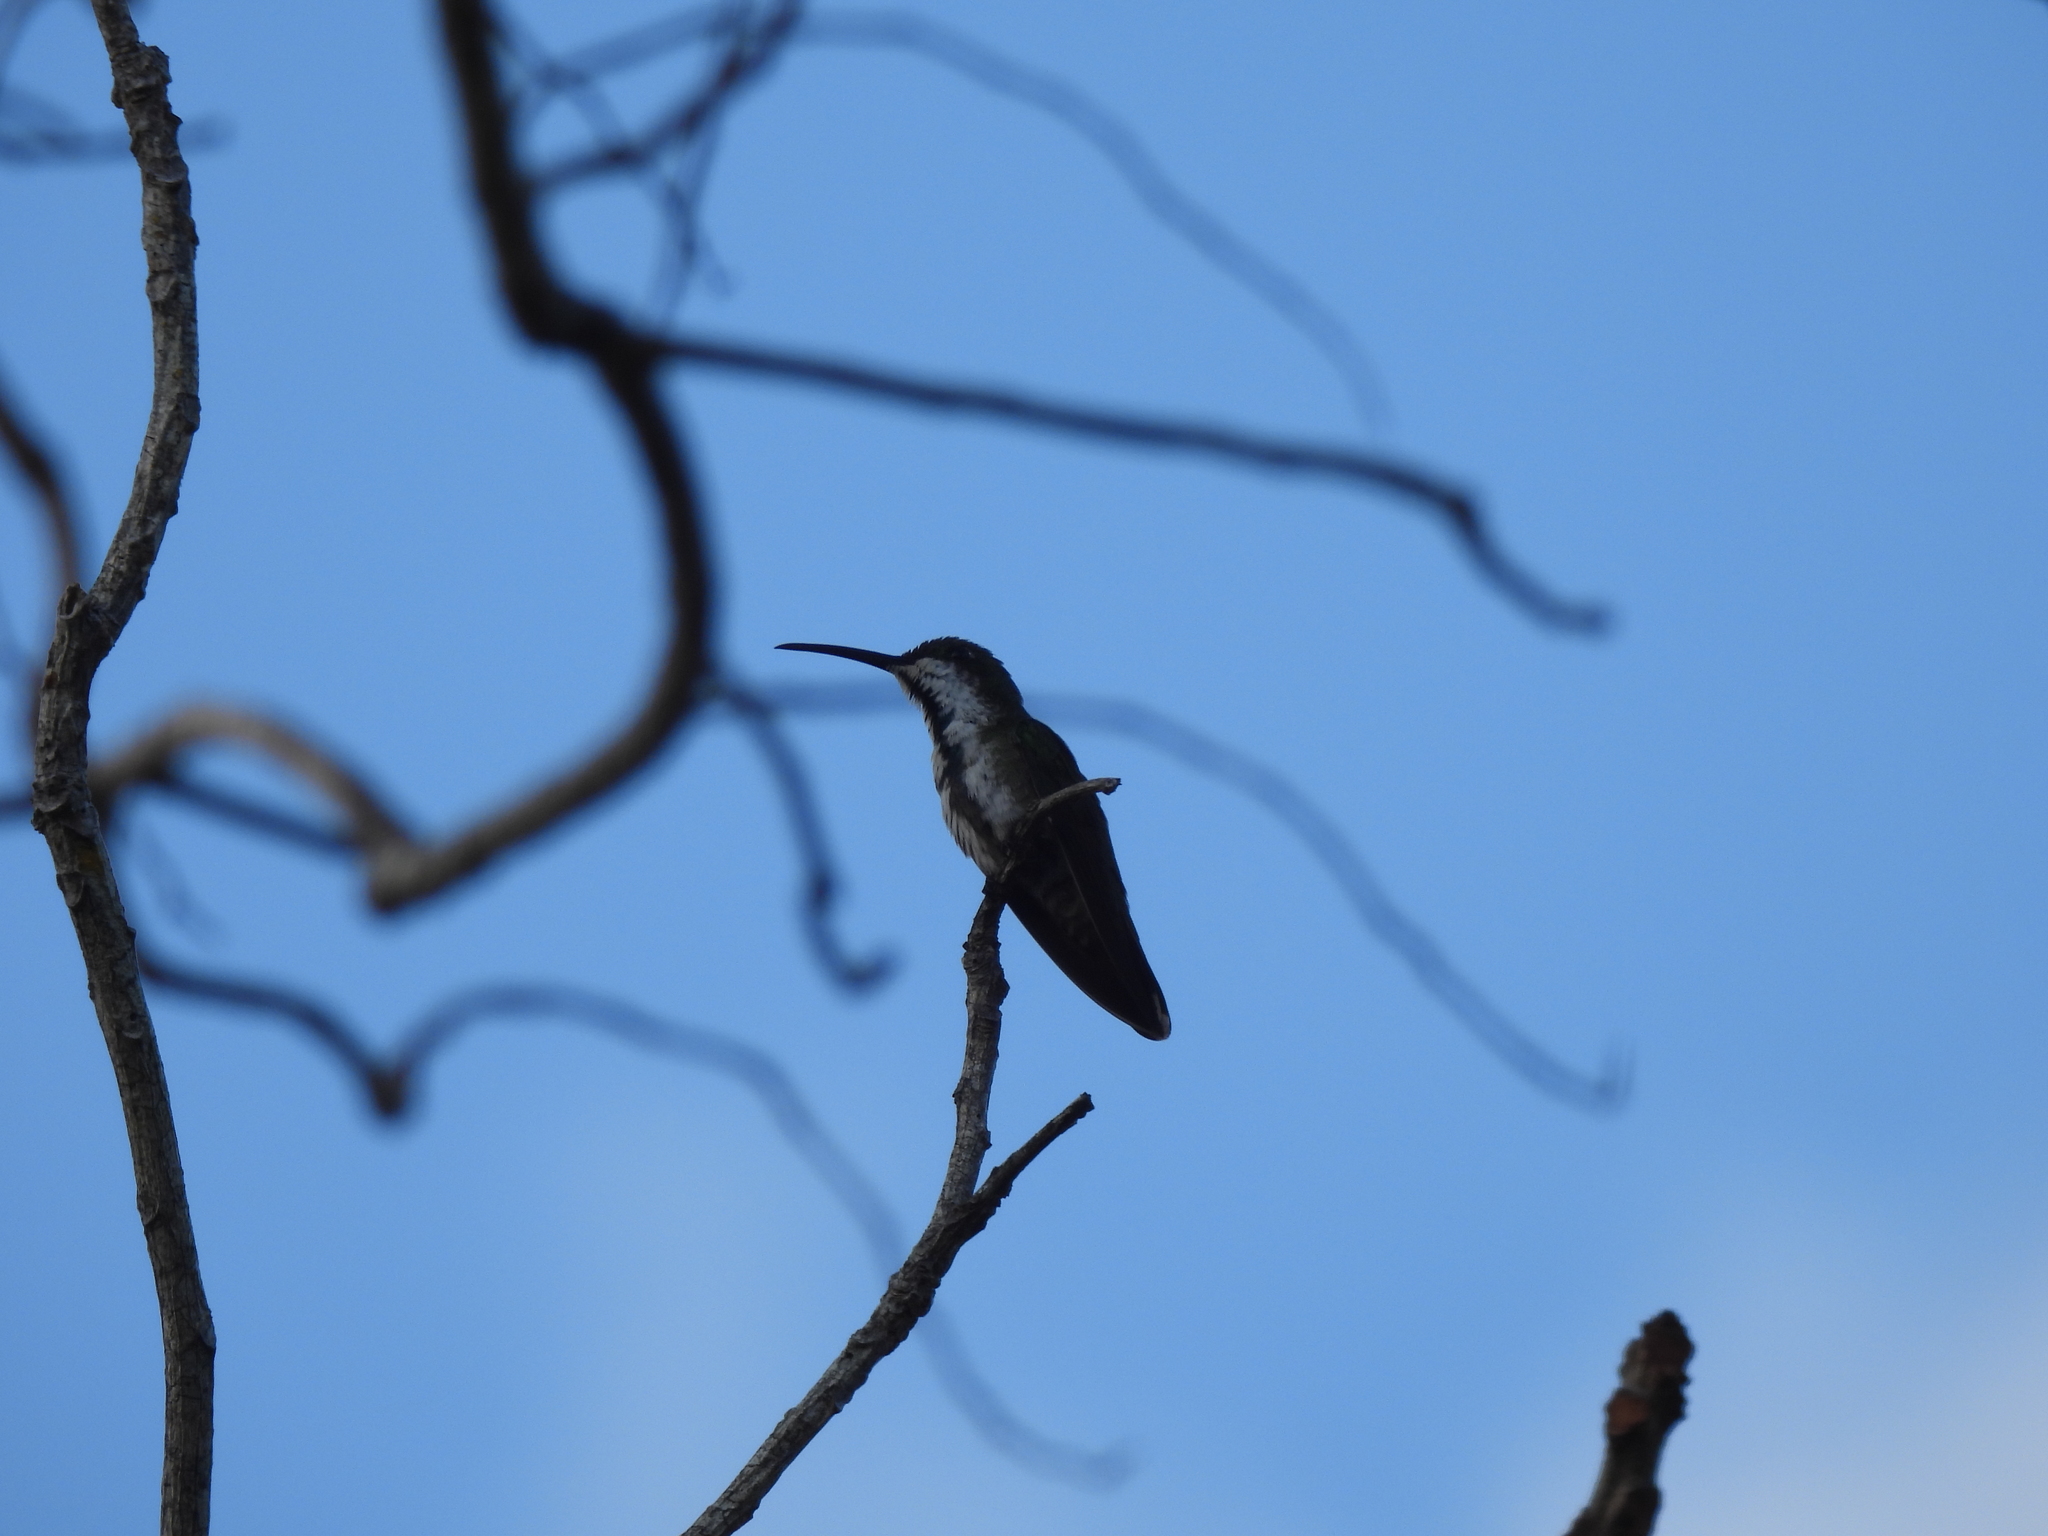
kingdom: Animalia
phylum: Chordata
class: Aves
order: Apodiformes
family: Trochilidae
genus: Anthracothorax
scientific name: Anthracothorax prevostii
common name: Green-breasted mango
